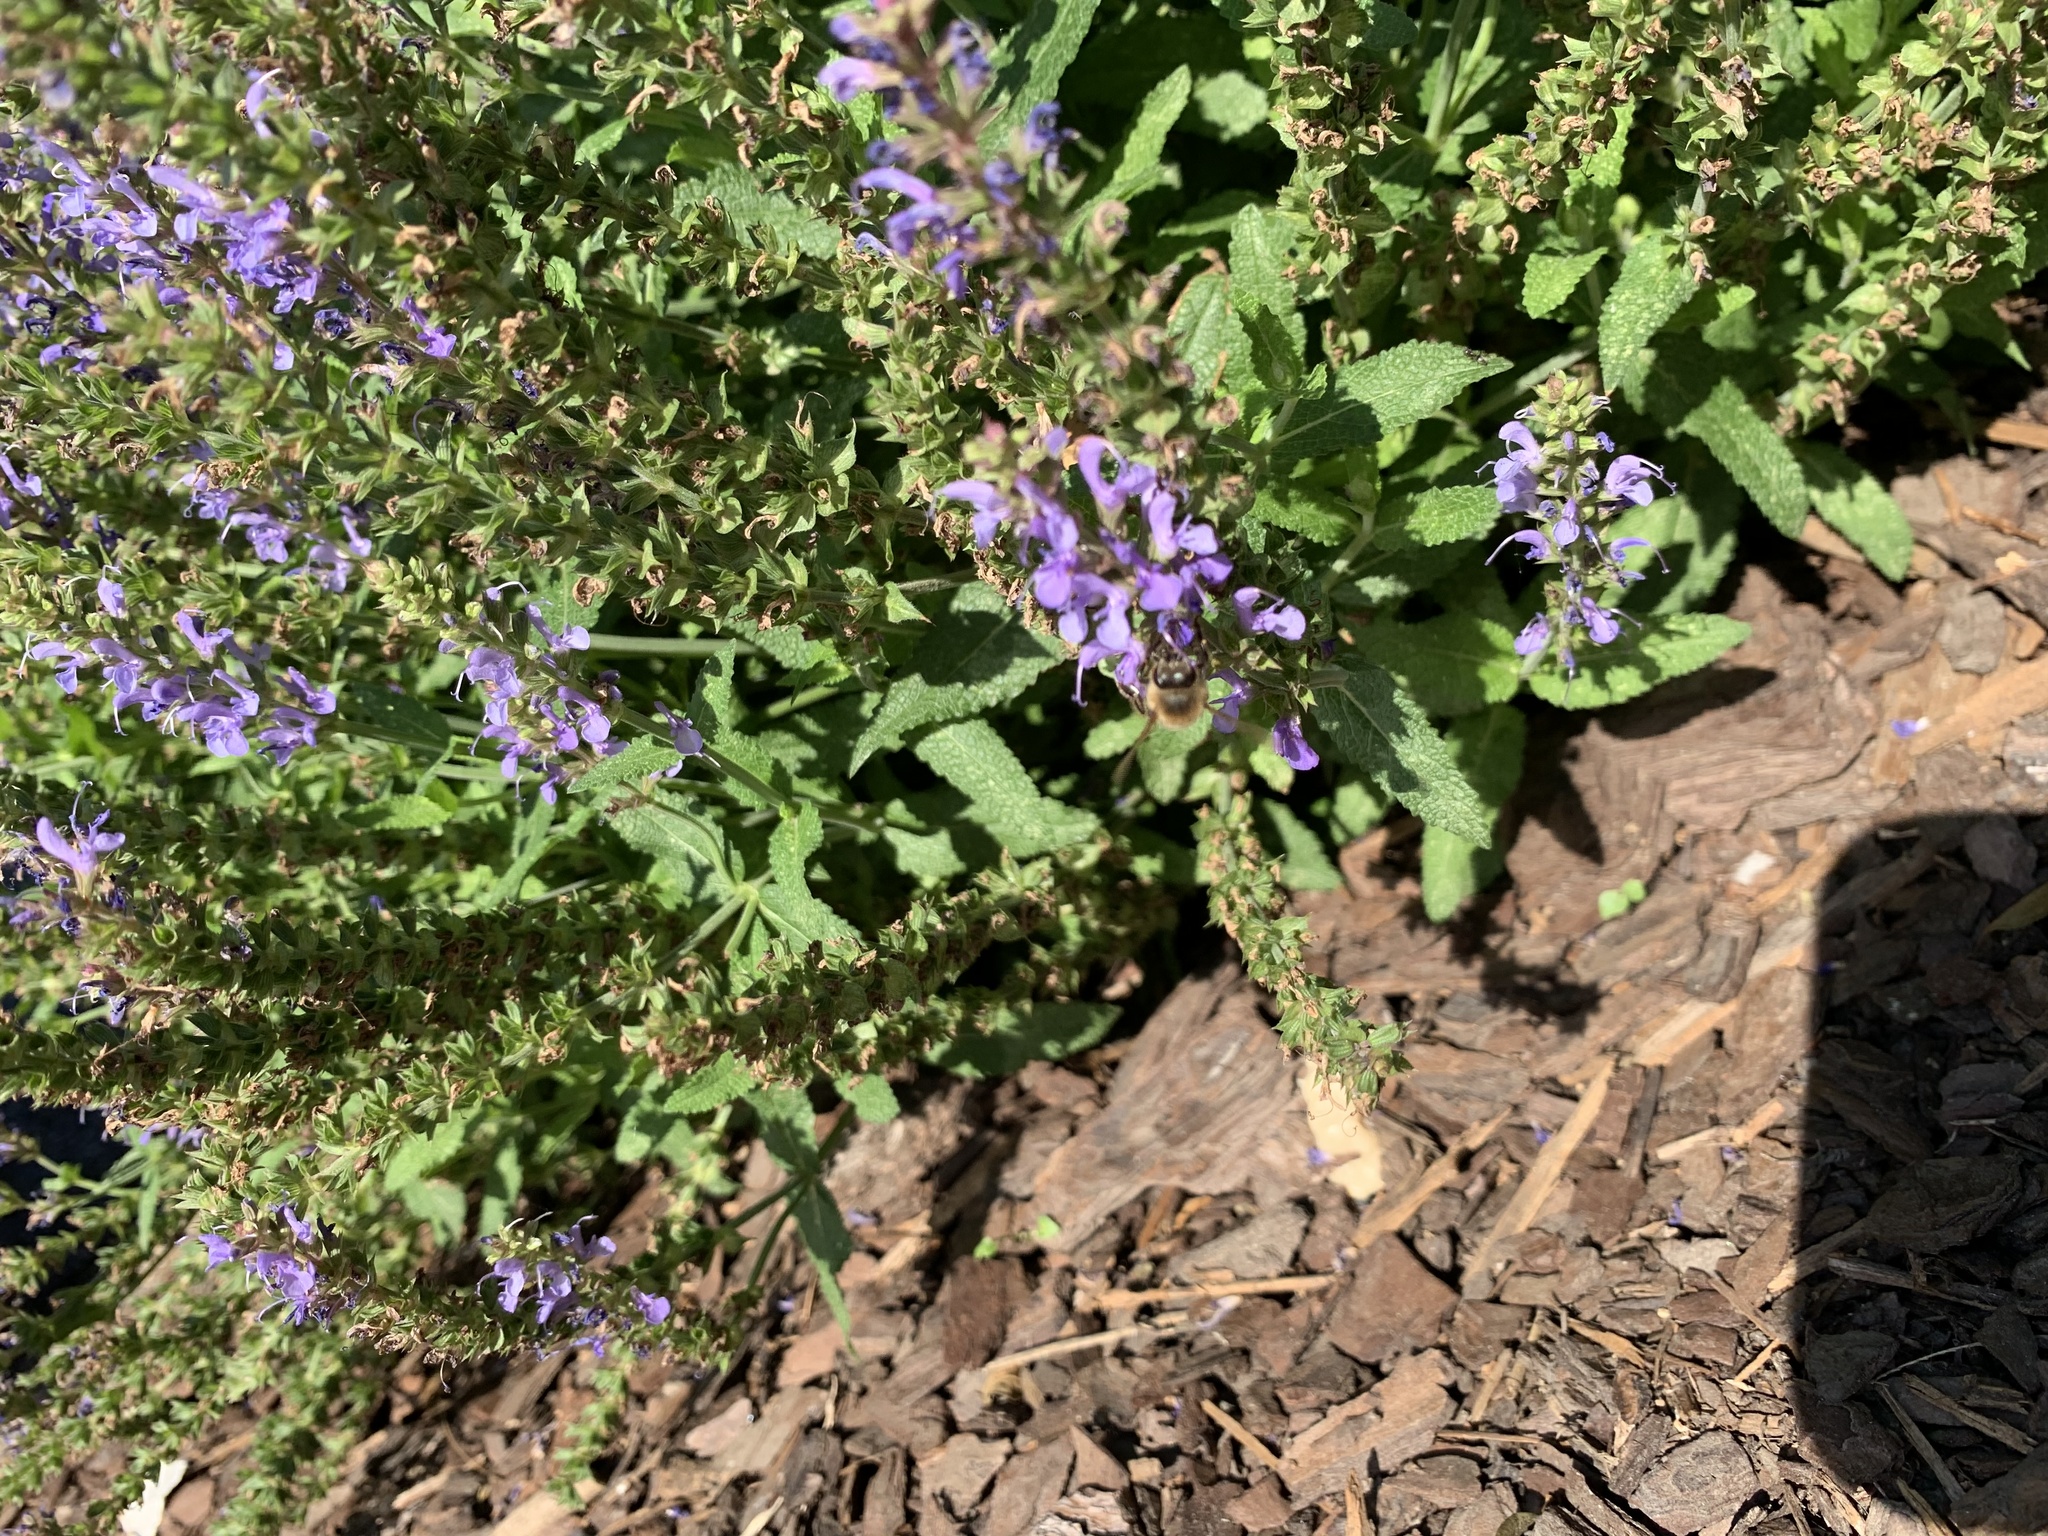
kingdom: Animalia
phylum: Arthropoda
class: Insecta
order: Hymenoptera
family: Apidae
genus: Apis
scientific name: Apis mellifera
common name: Honey bee
